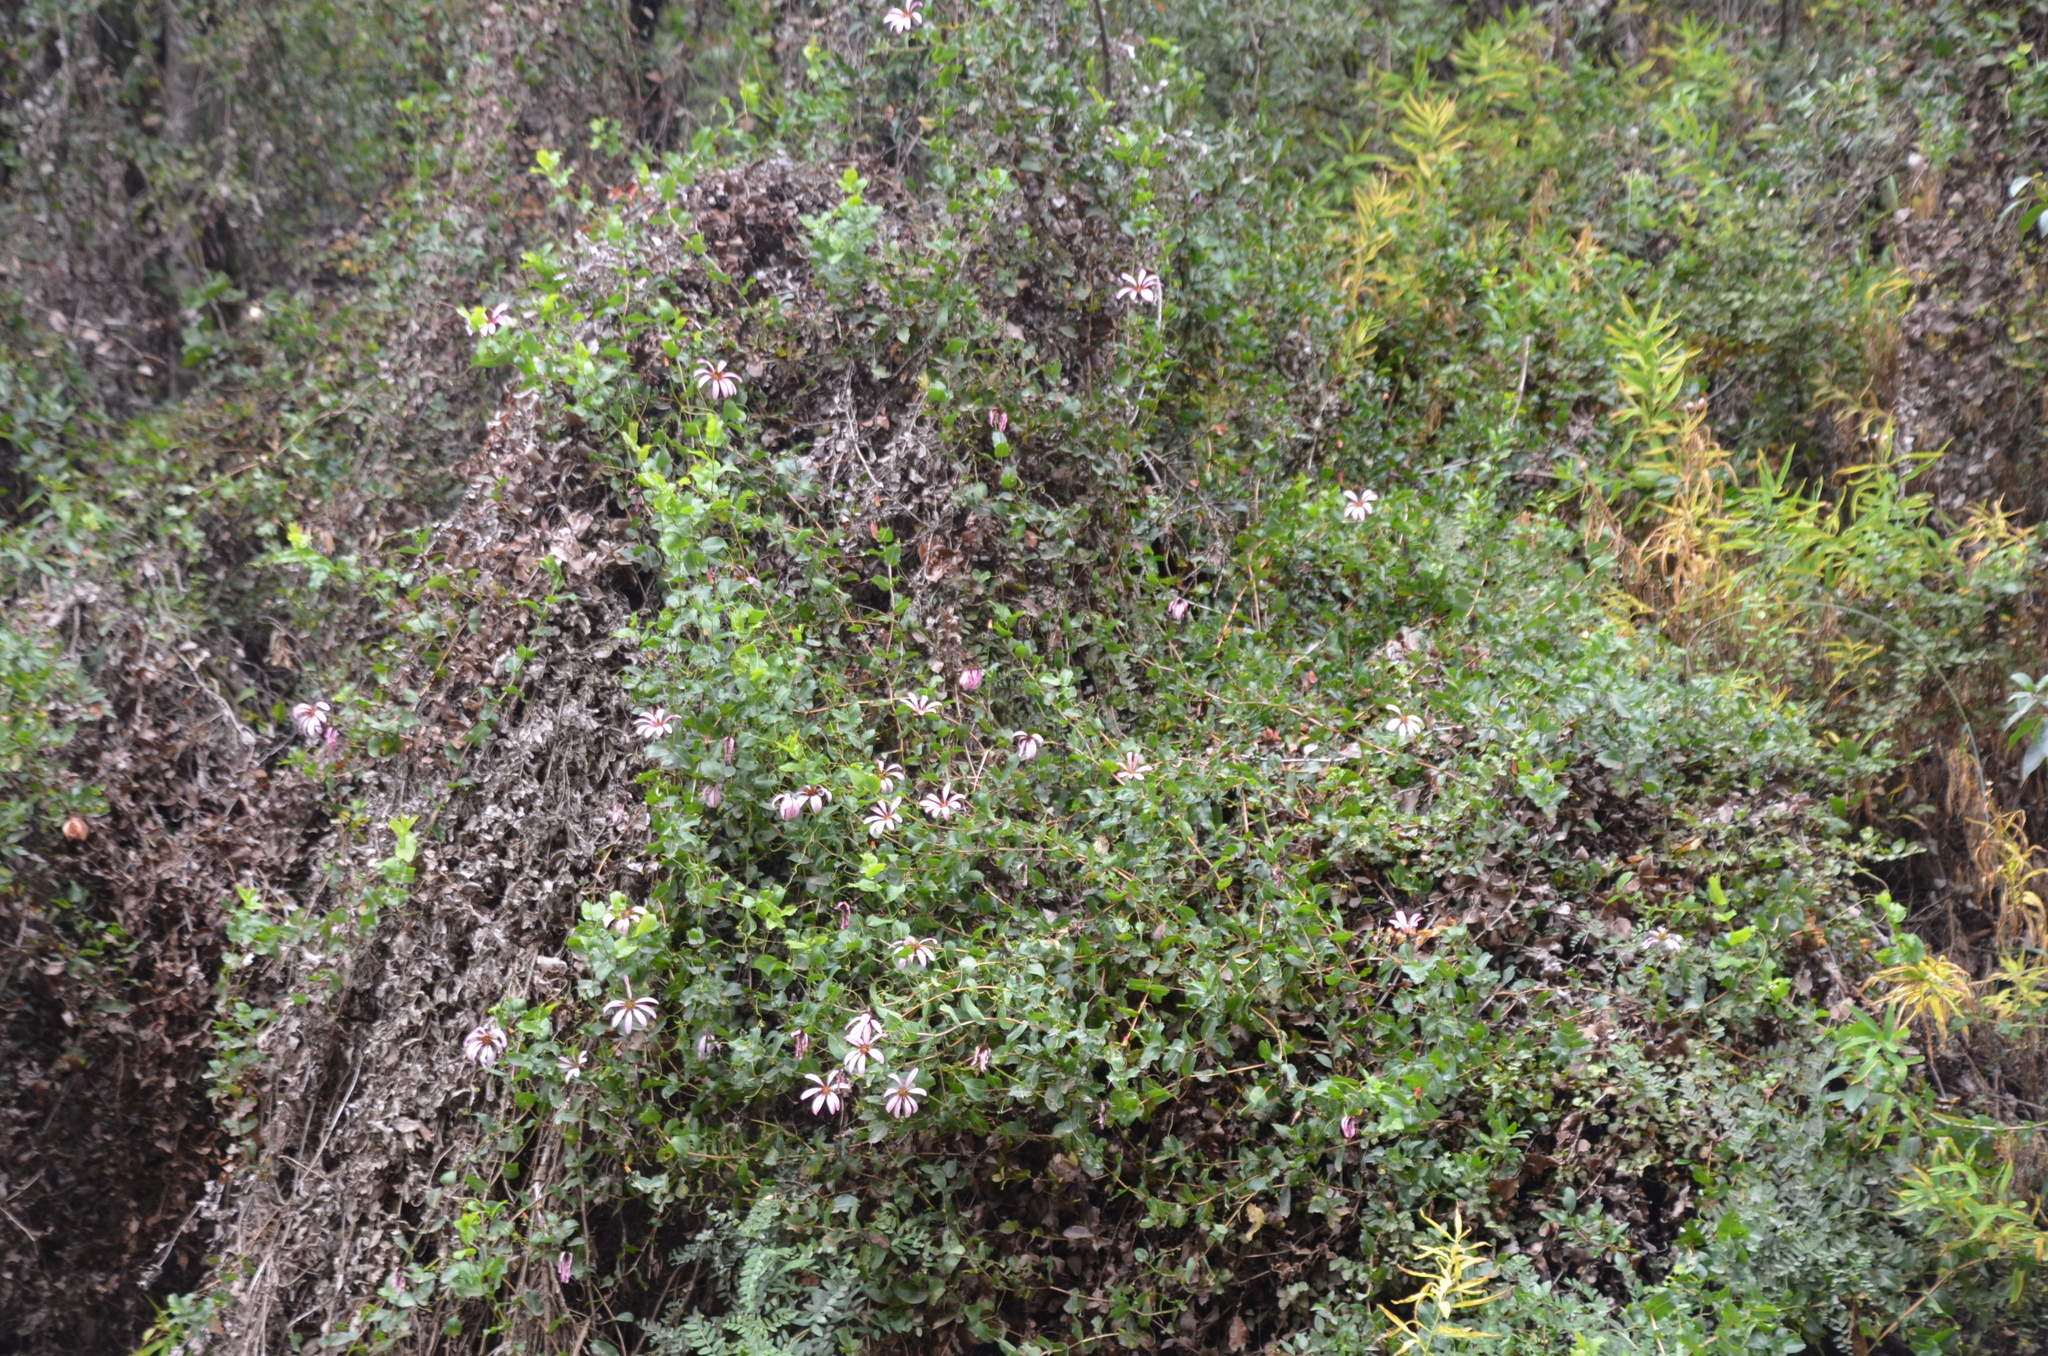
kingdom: Plantae
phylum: Tracheophyta
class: Magnoliopsida
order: Asterales
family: Asteraceae
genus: Mutisia
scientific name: Mutisia spinosa
